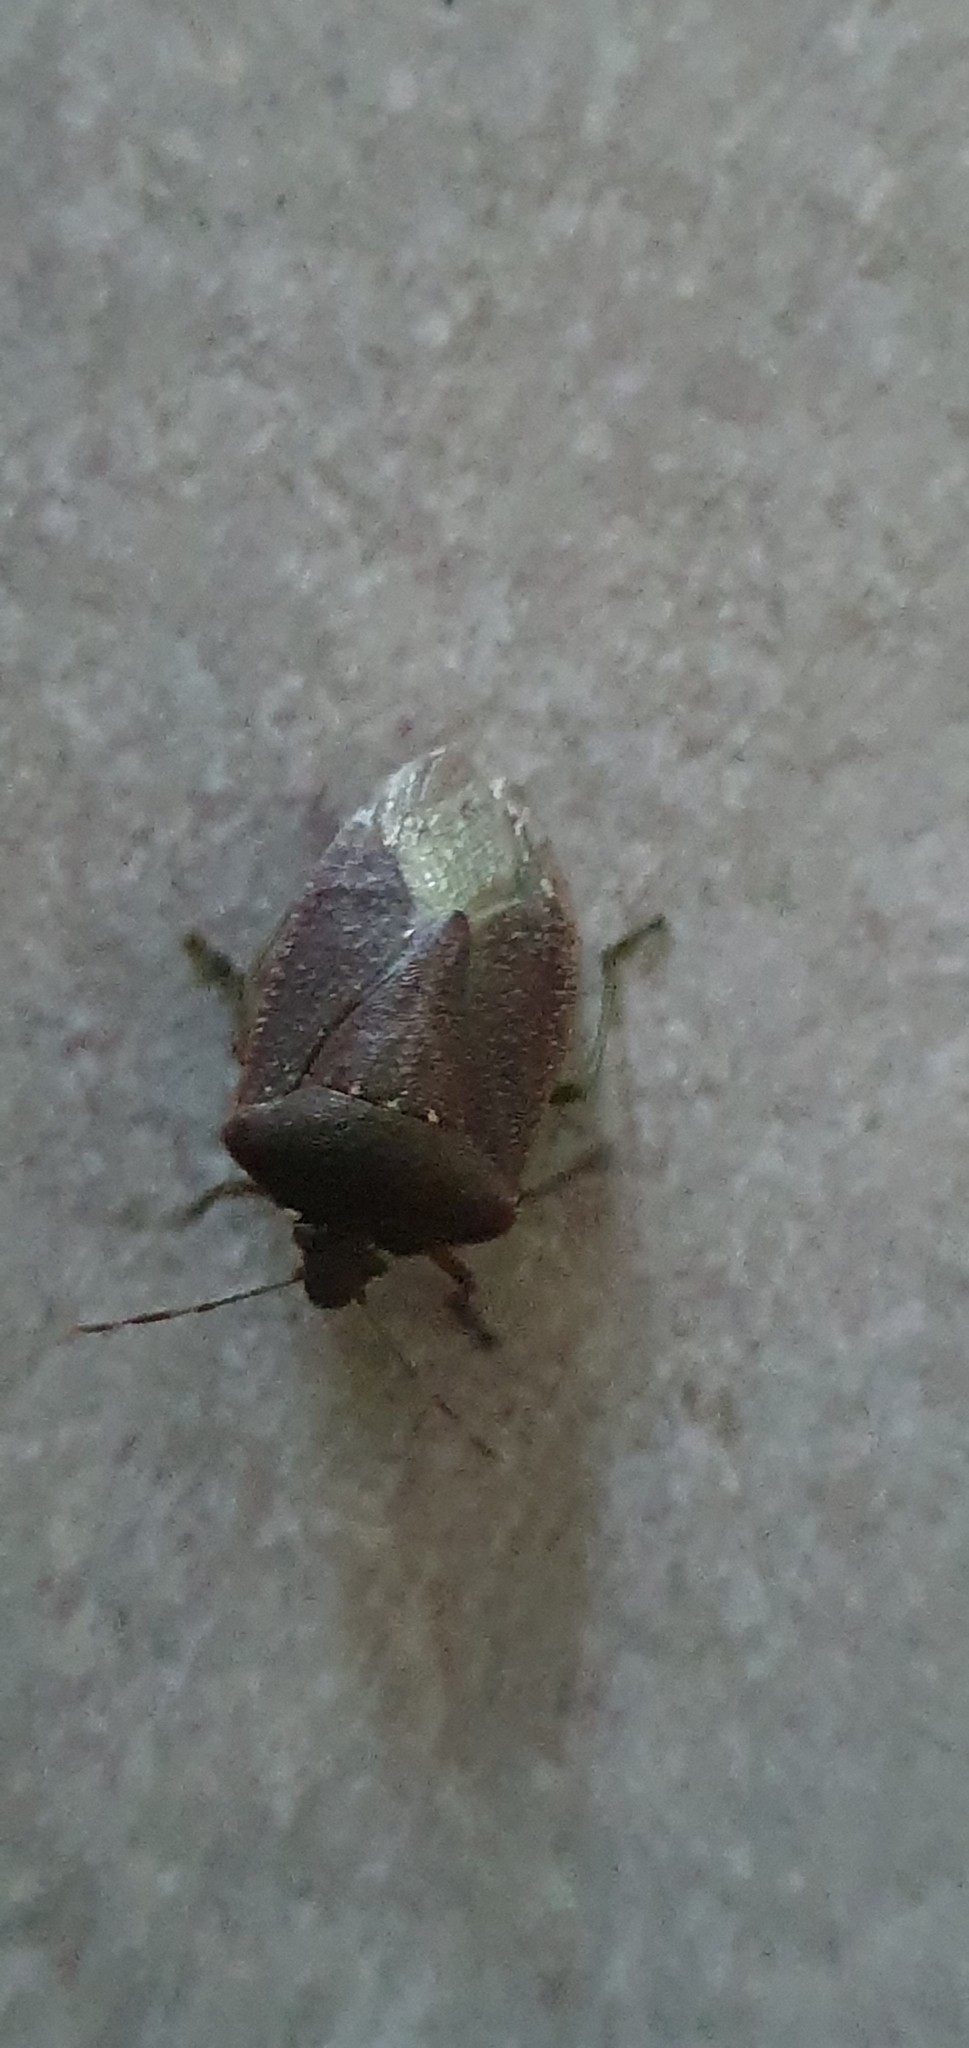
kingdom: Animalia
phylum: Arthropoda
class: Insecta
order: Hemiptera
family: Pentatomidae
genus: Nezara
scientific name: Nezara viridula
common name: Southern green stink bug
